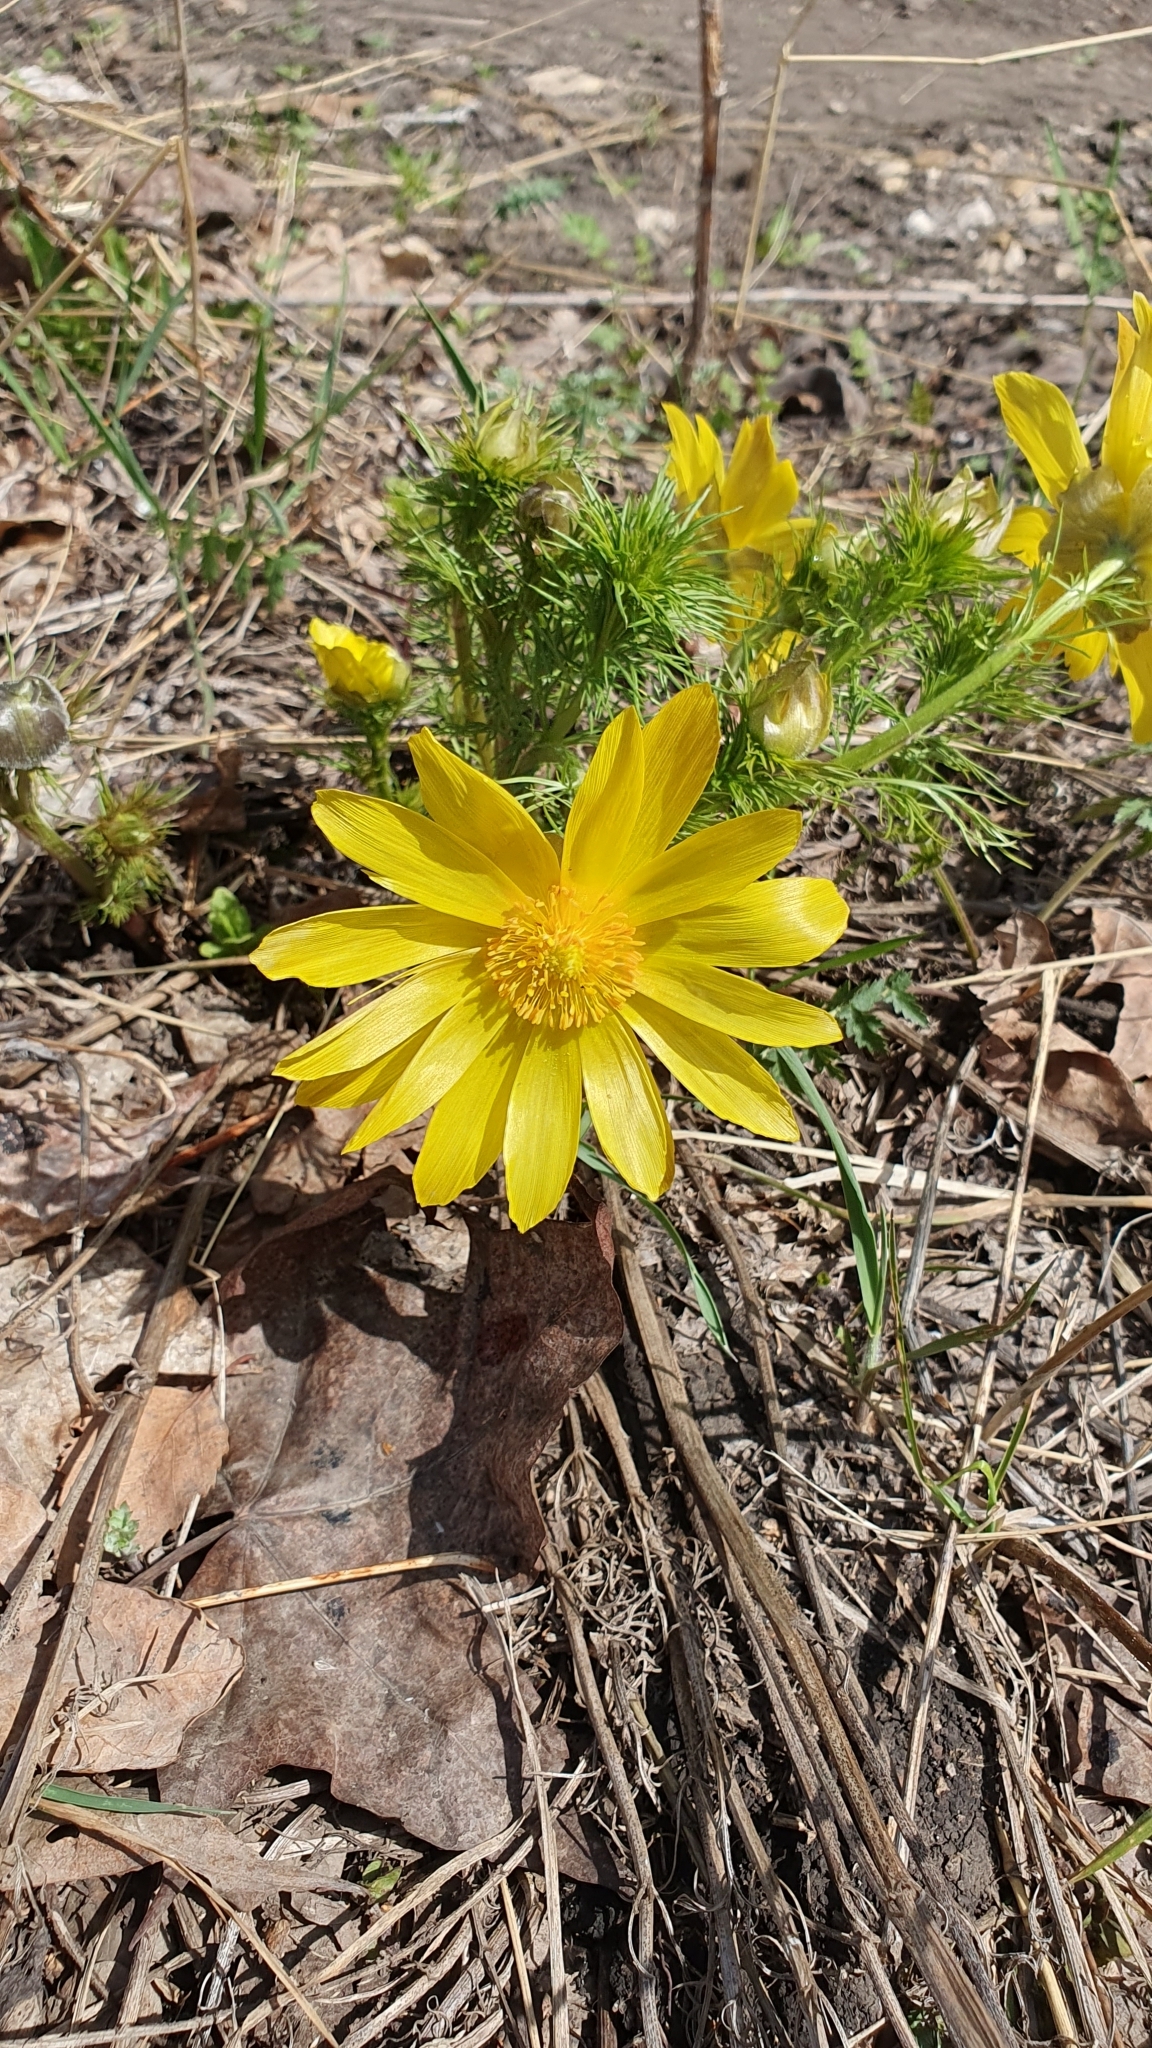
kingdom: Plantae
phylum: Tracheophyta
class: Magnoliopsida
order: Ranunculales
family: Ranunculaceae
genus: Adonis
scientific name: Adonis vernalis
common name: Yellow pheasants-eye
